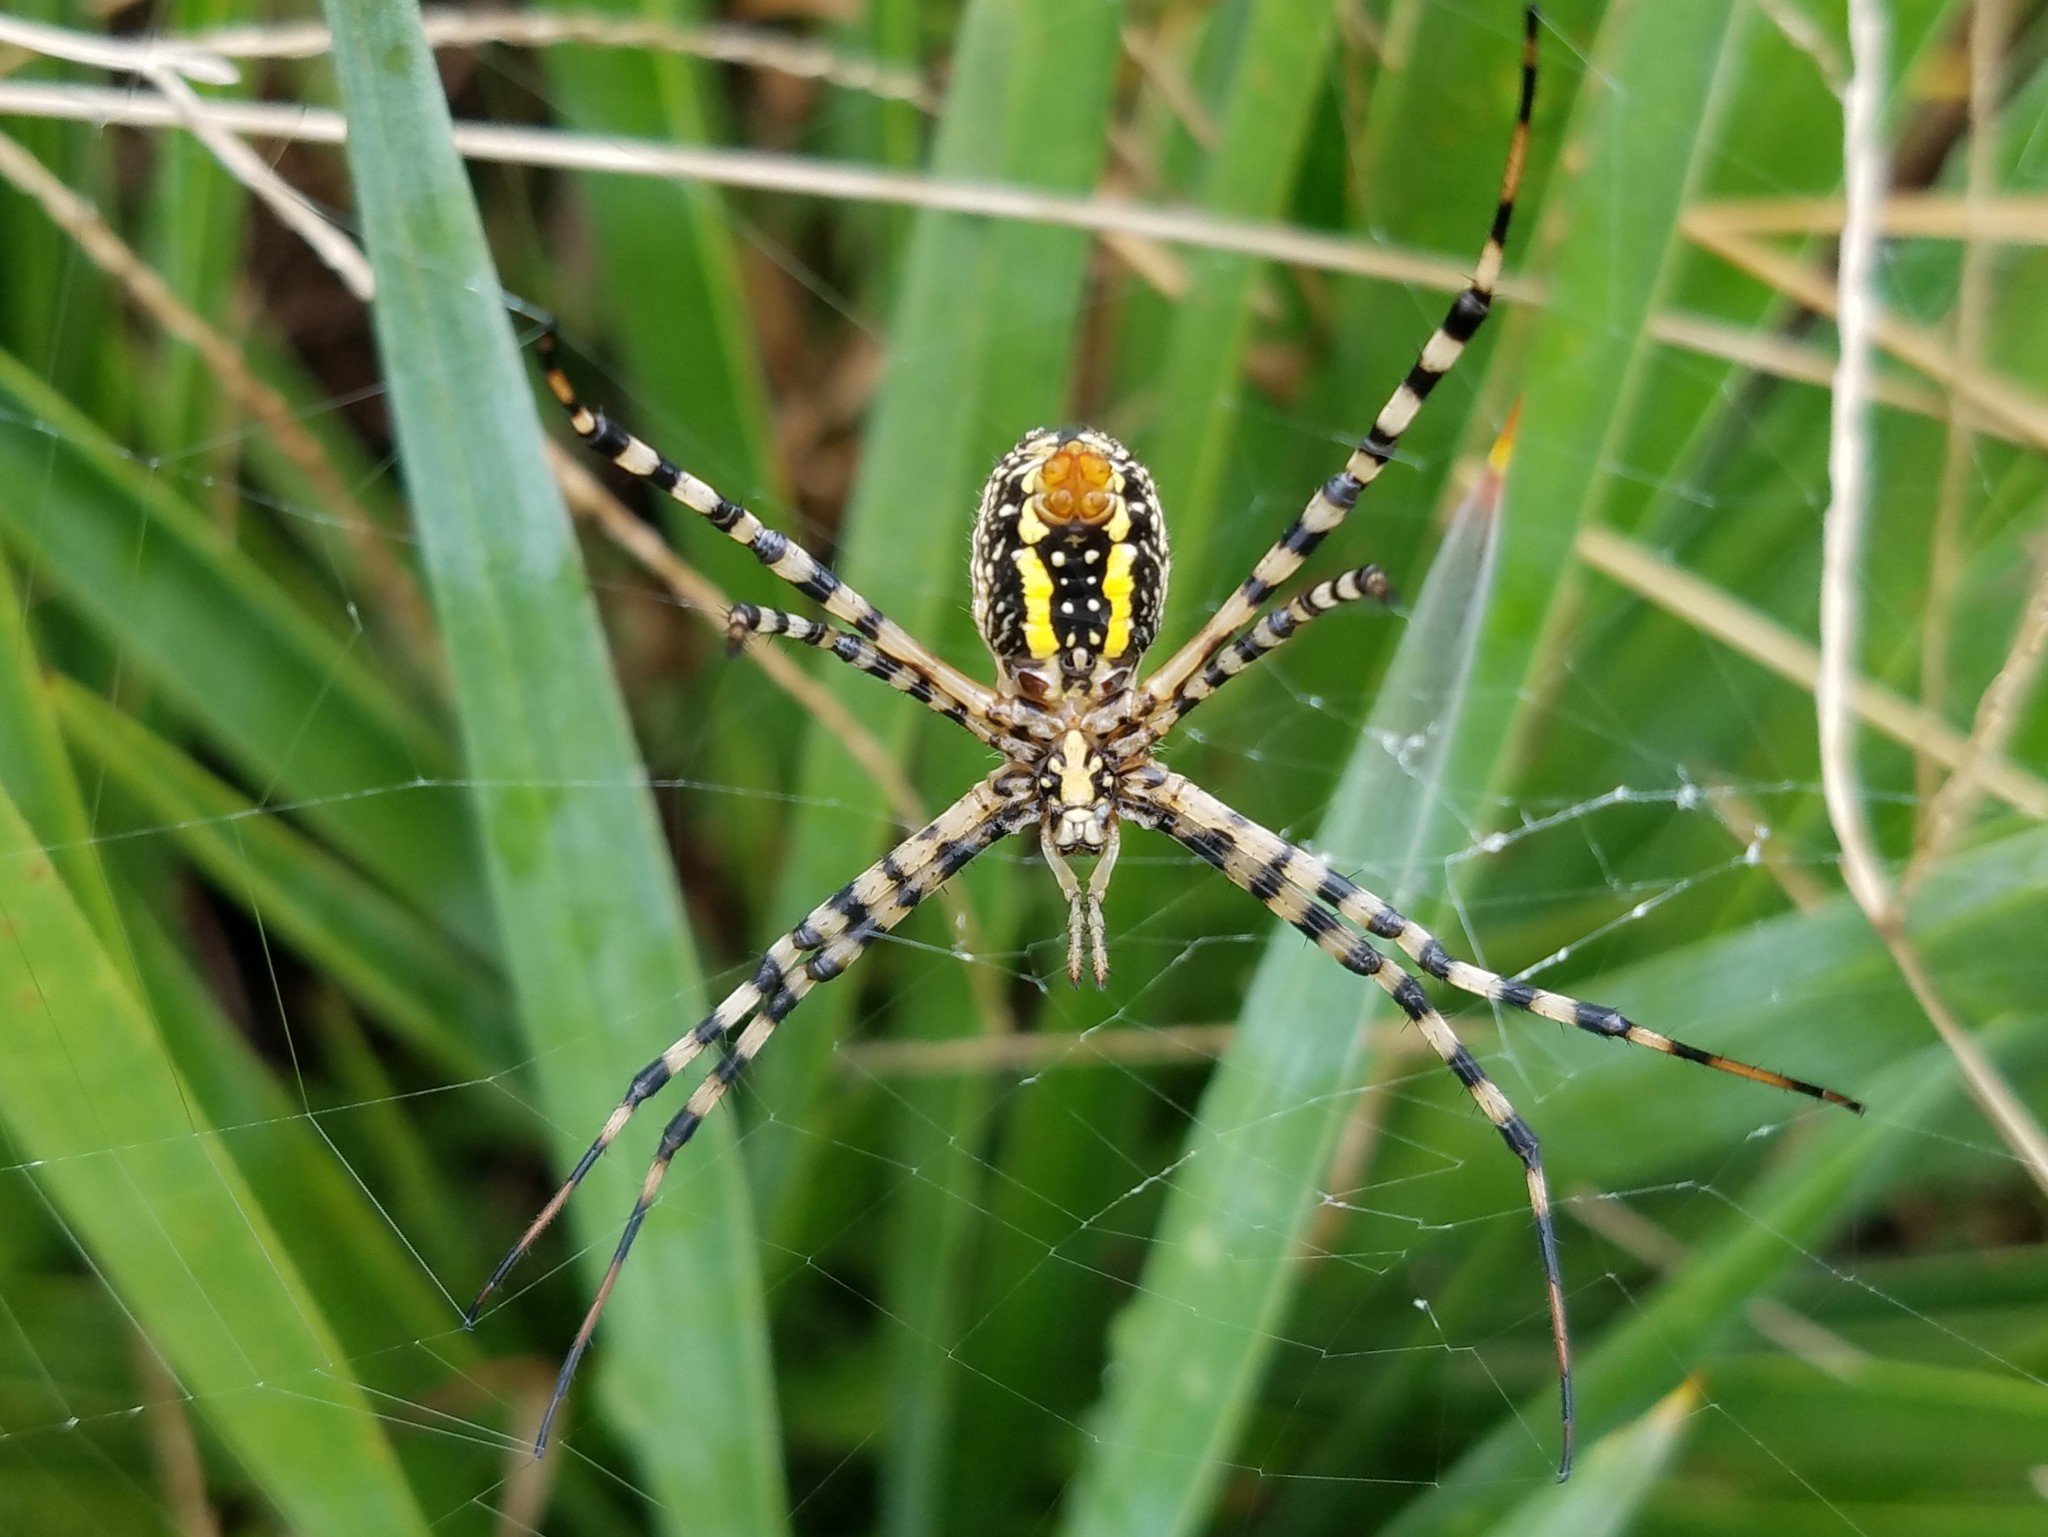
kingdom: Animalia
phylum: Arthropoda
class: Arachnida
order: Araneae
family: Araneidae
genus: Argiope
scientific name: Argiope trifasciata
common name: Banded garden spider
